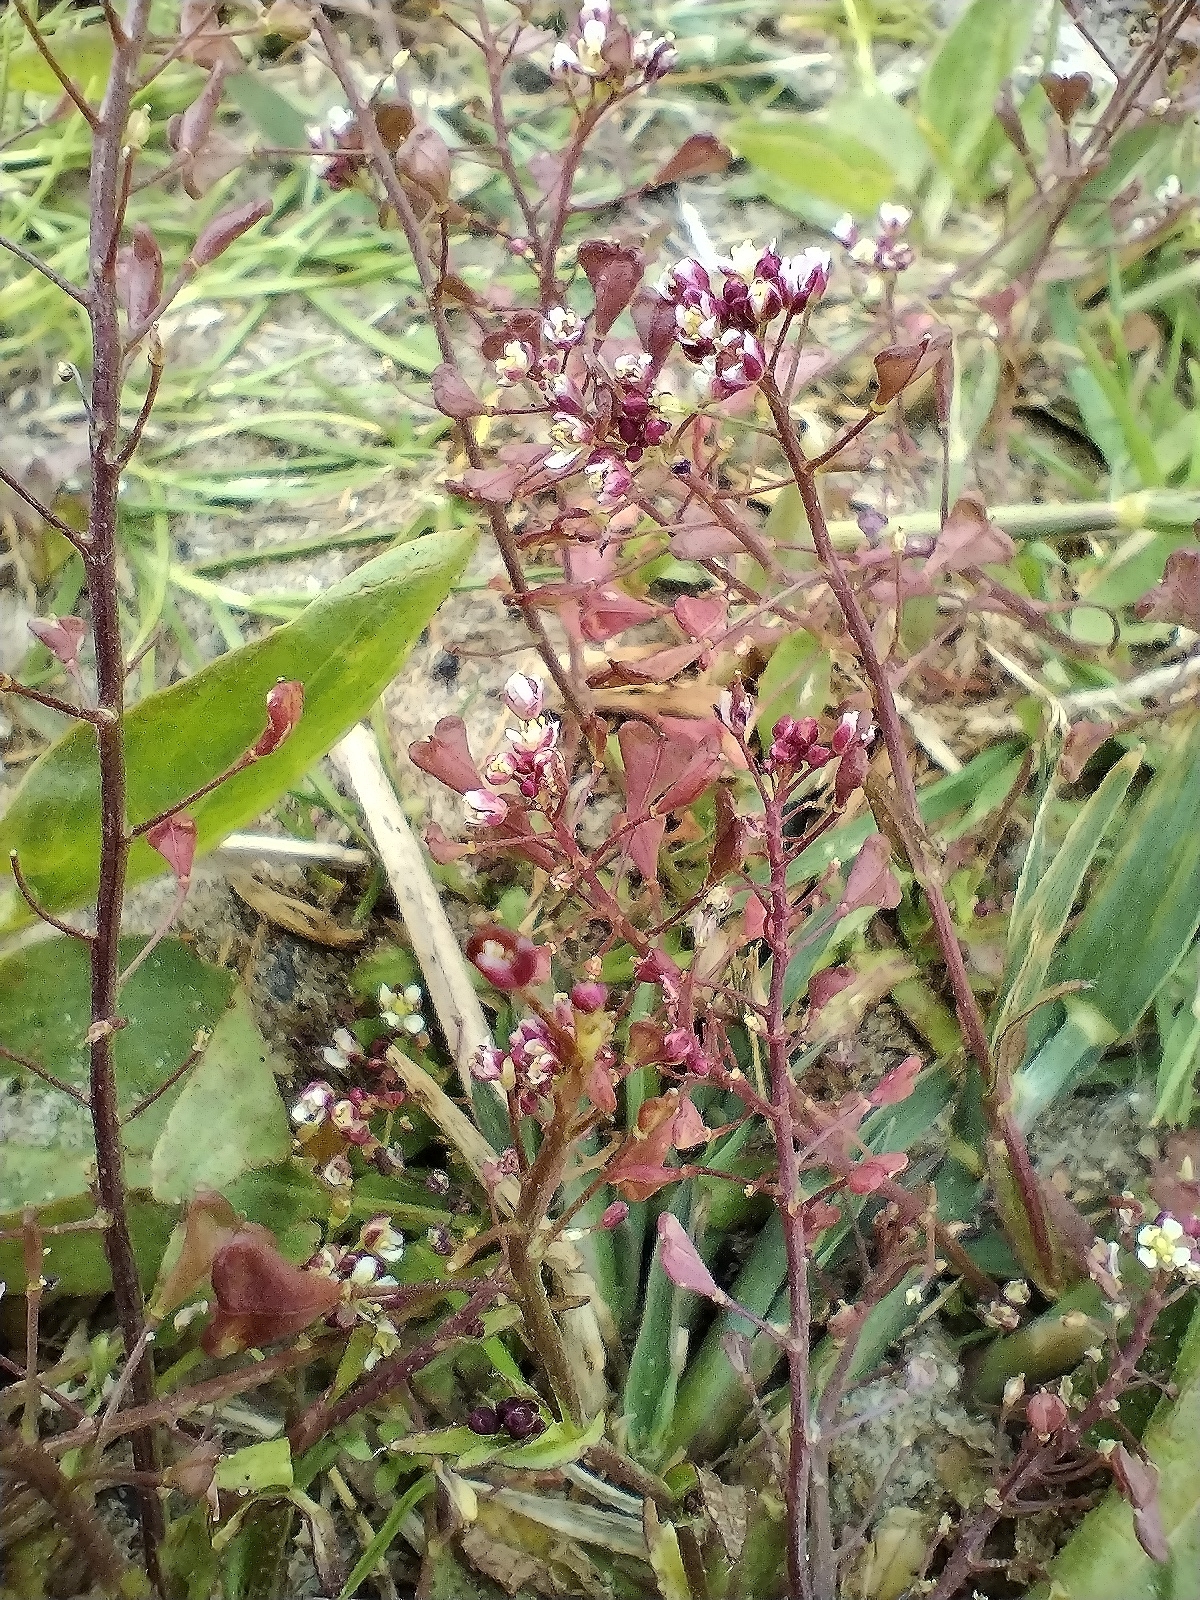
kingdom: Plantae
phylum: Tracheophyta
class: Magnoliopsida
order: Brassicales
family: Brassicaceae
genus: Capsella
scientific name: Capsella bursa-pastoris
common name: Shepherd's purse
